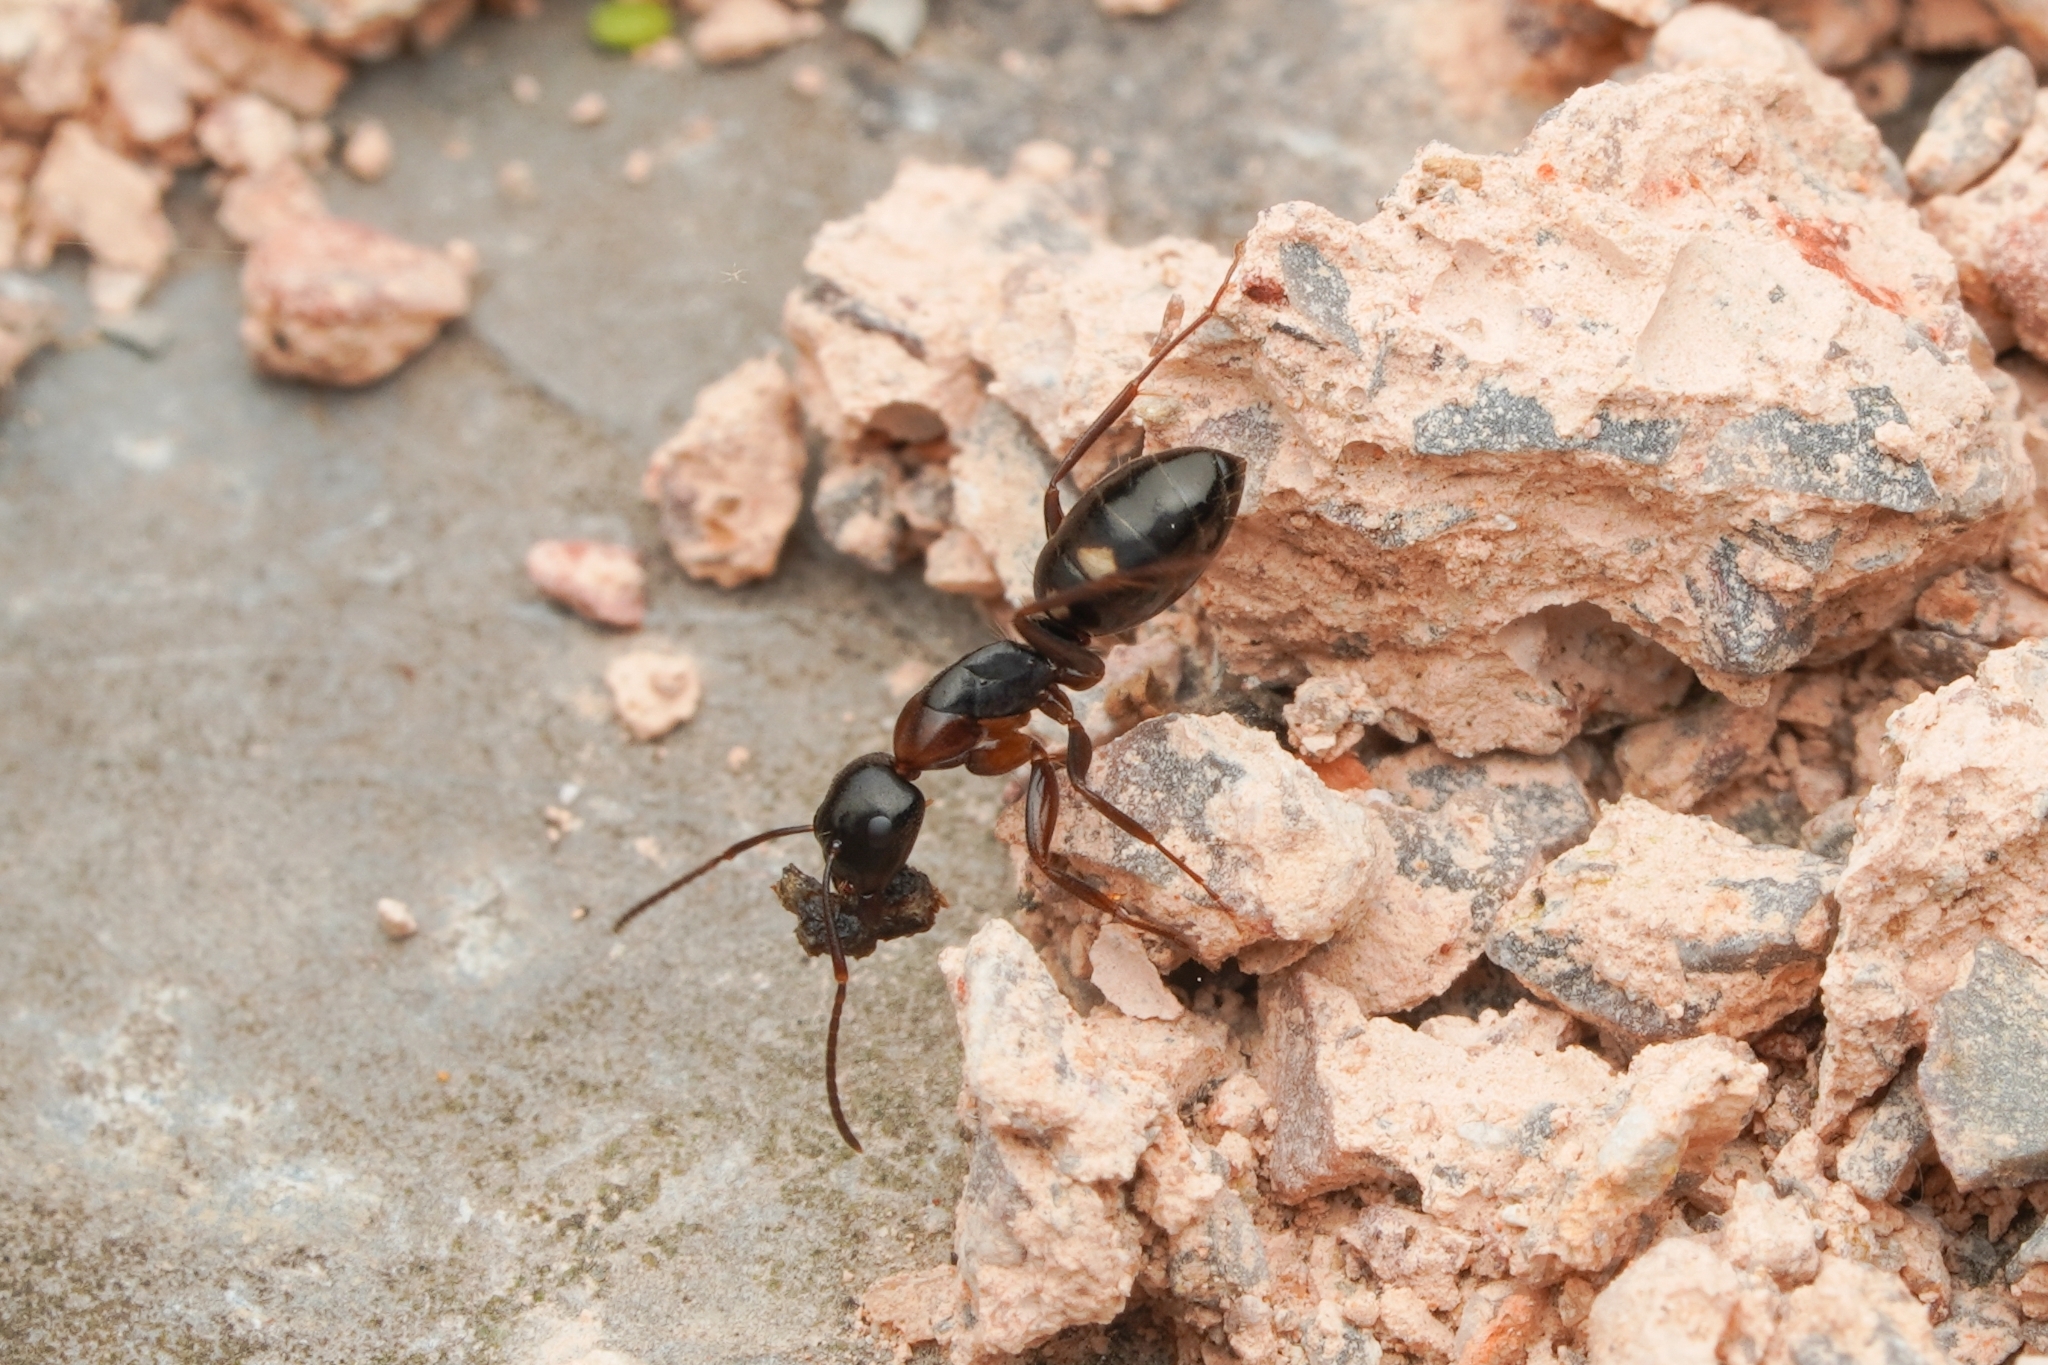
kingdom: Animalia
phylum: Arthropoda
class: Insecta
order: Hymenoptera
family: Formicidae
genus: Camponotus
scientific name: Camponotus quadrinotatus
